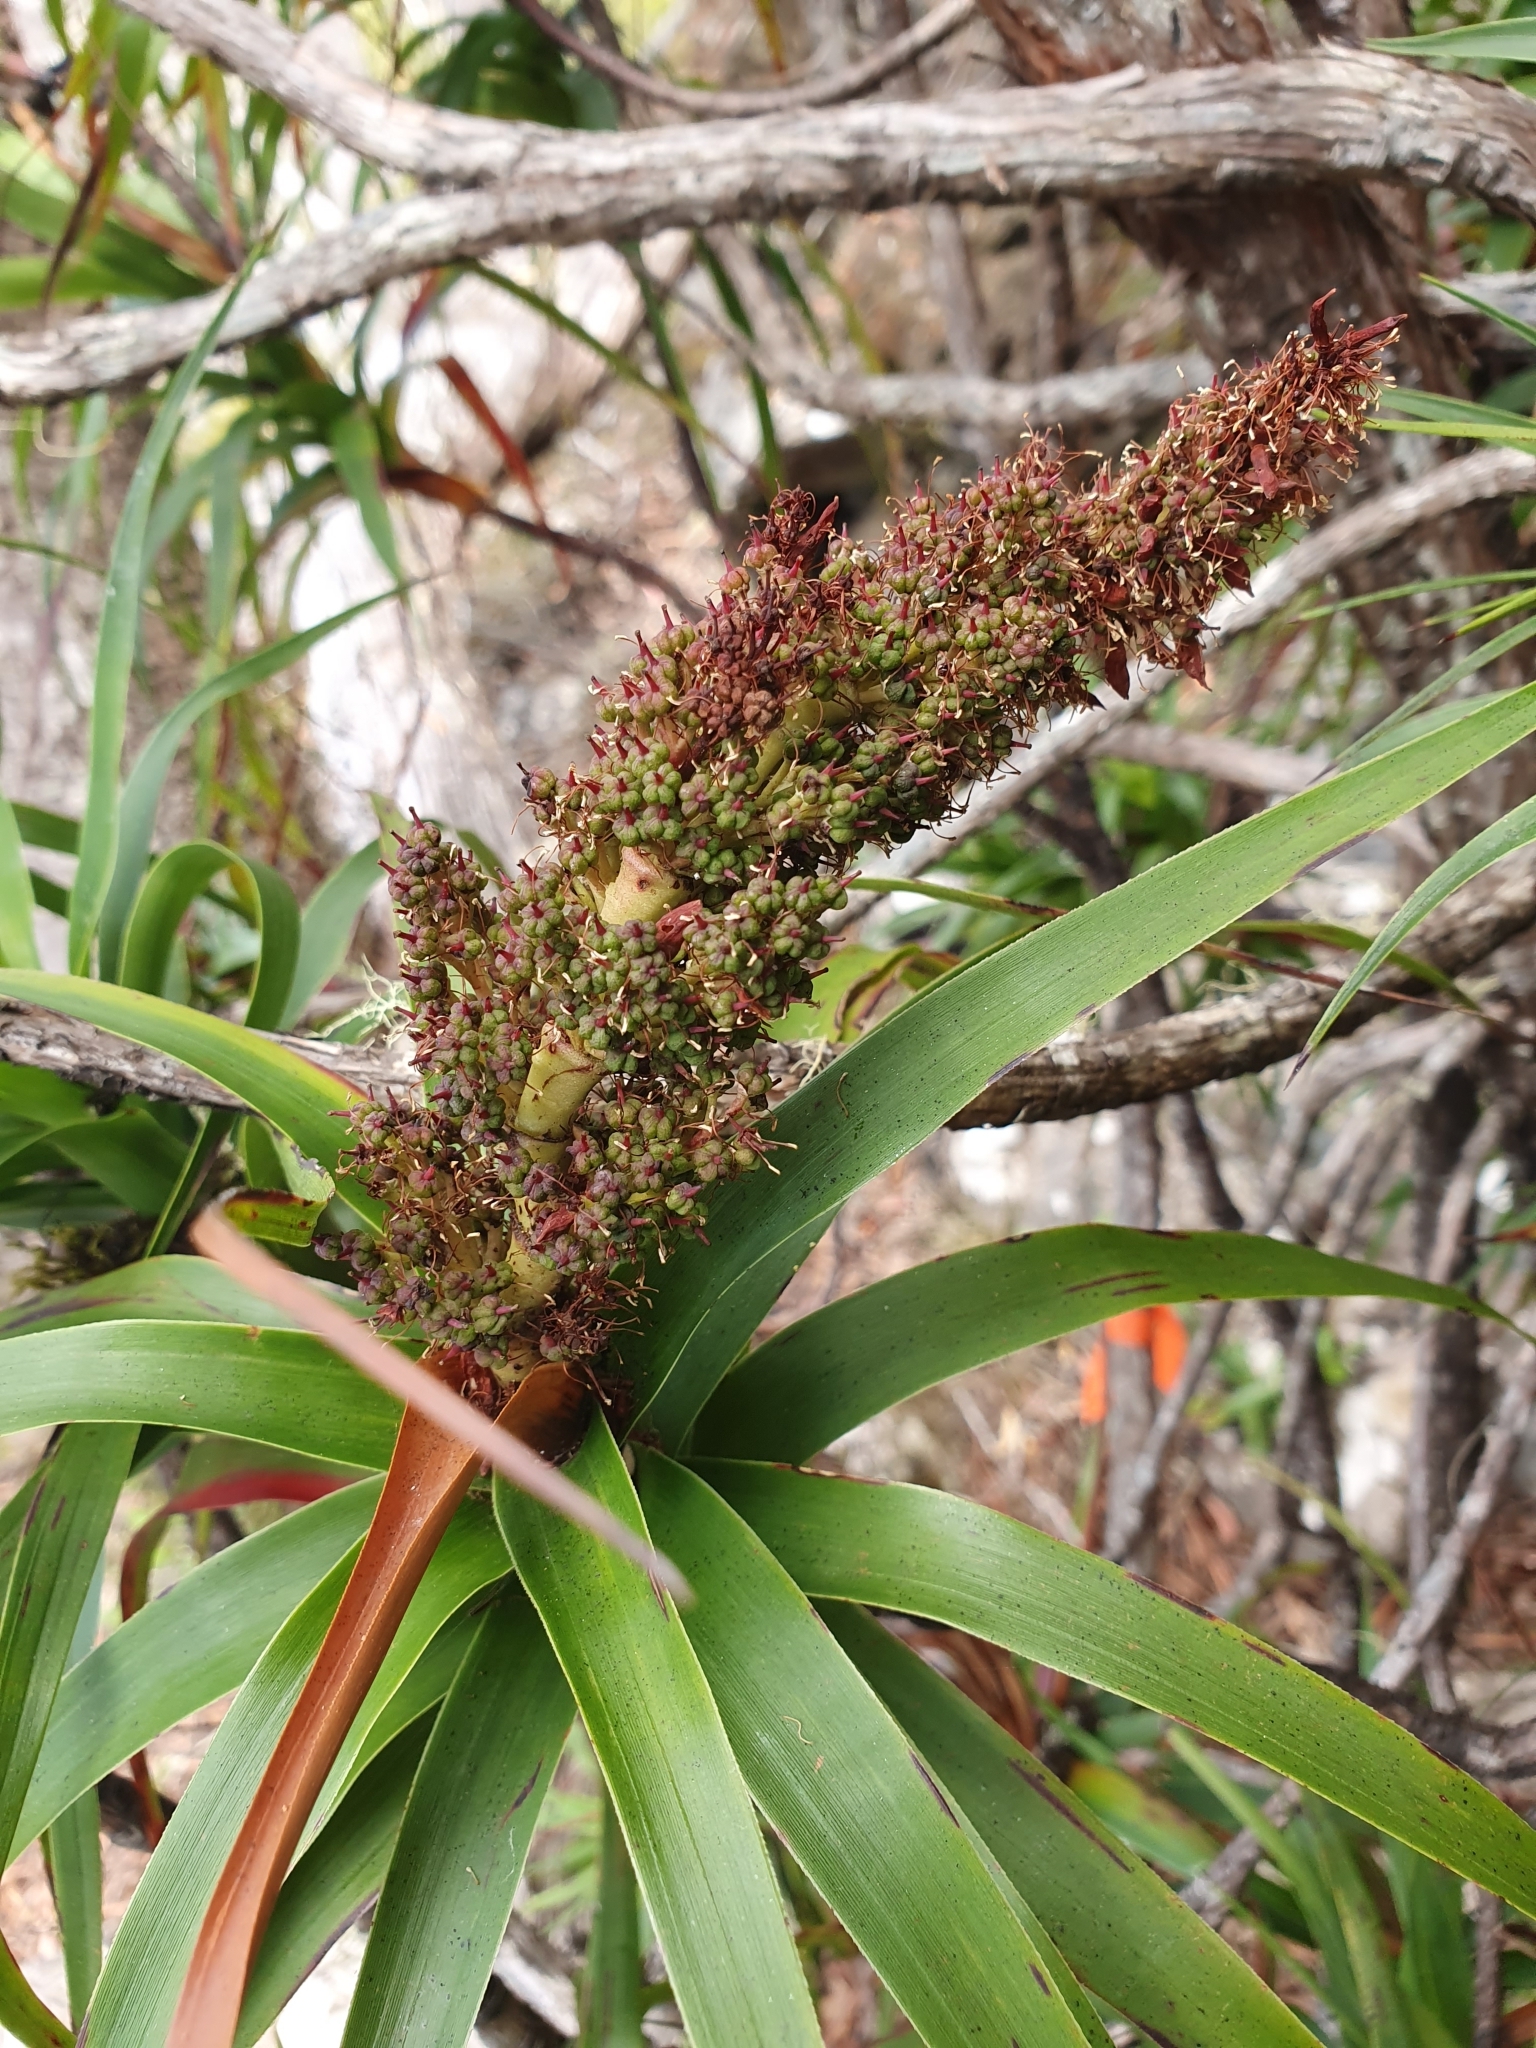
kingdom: Plantae
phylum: Tracheophyta
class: Magnoliopsida
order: Ericales
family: Ericaceae
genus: Dracophyllum
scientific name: Dracophyllum desgrazii
